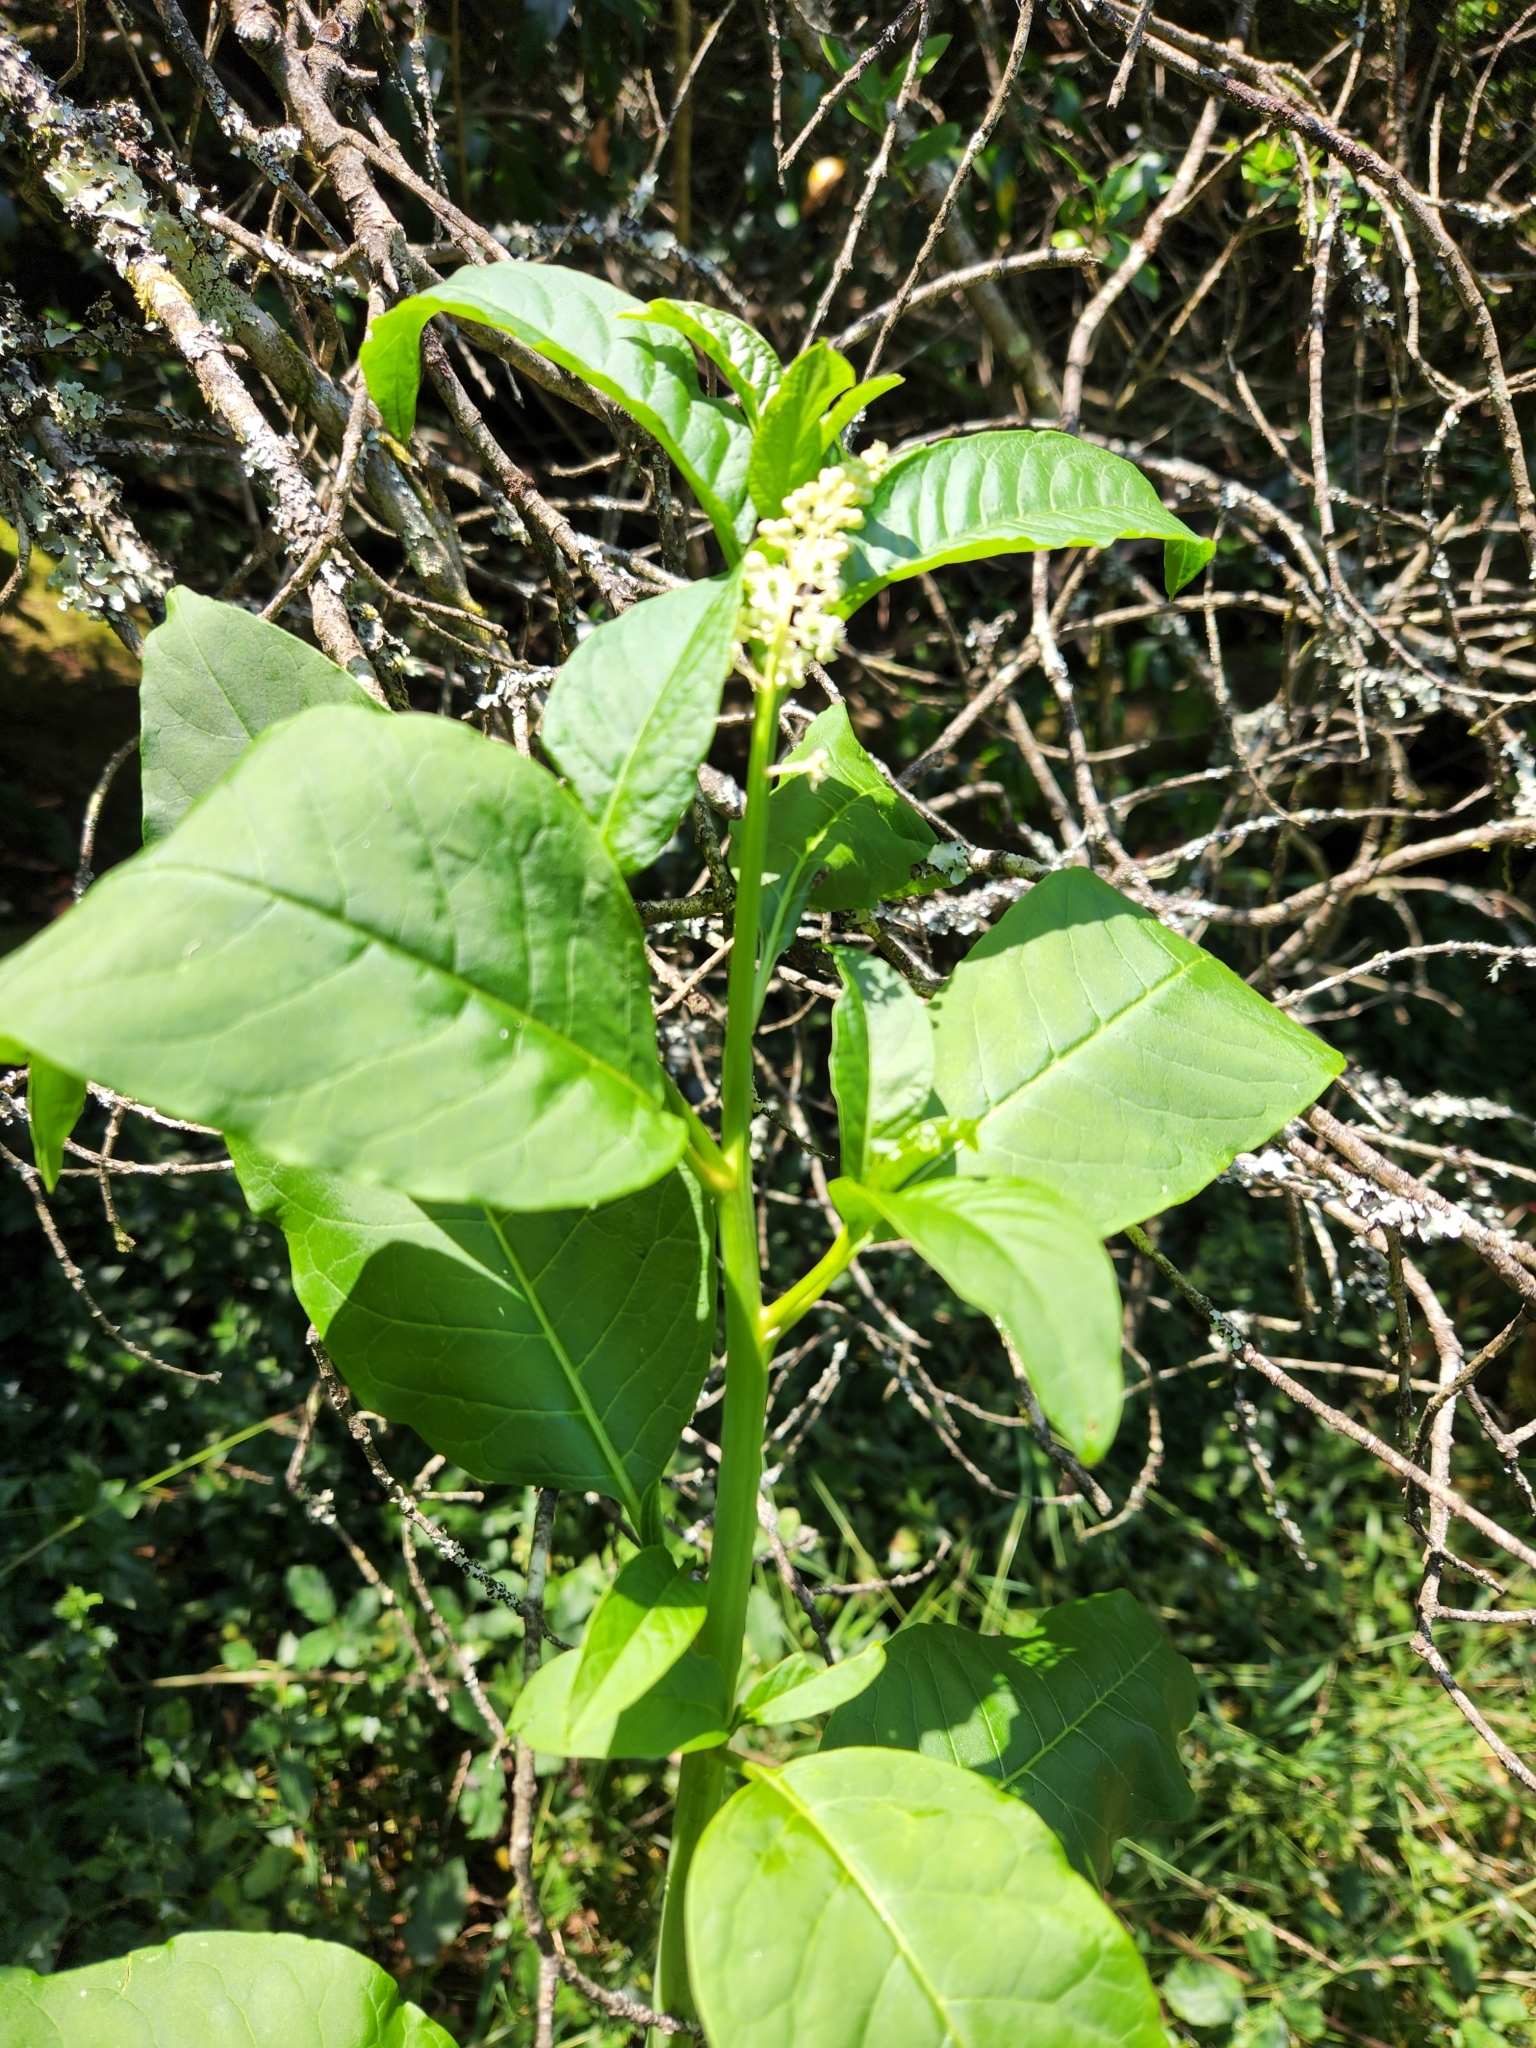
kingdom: Plantae
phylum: Tracheophyta
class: Magnoliopsida
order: Caryophyllales
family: Phytolaccaceae
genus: Phytolacca
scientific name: Phytolacca americana
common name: American pokeweed
